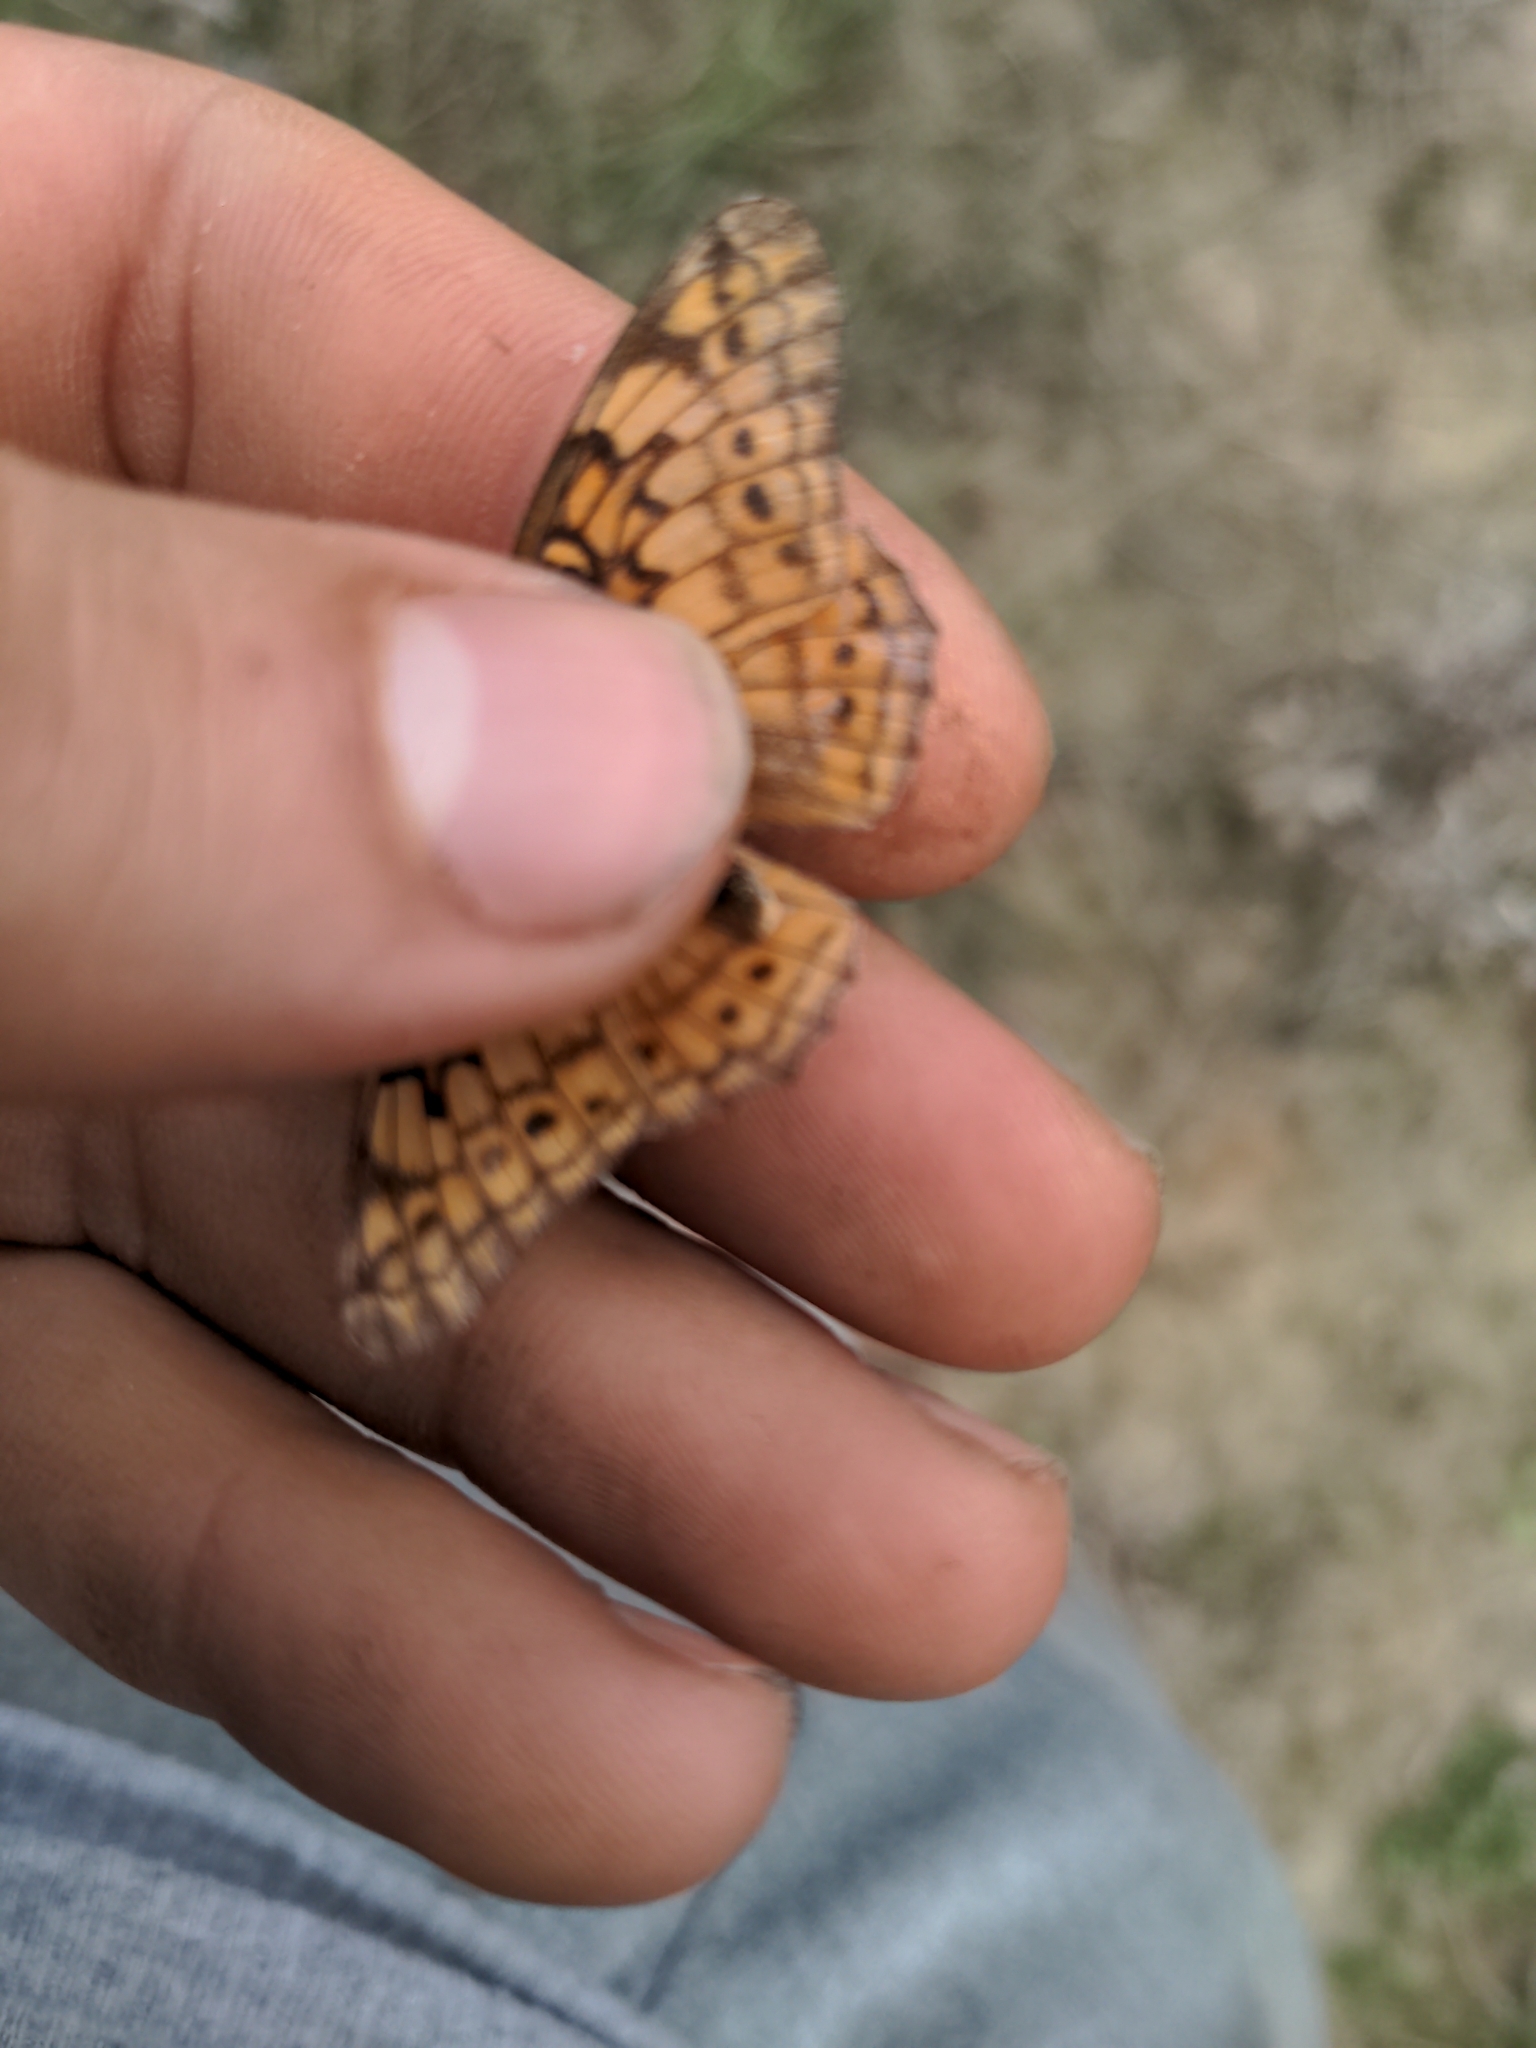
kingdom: Animalia
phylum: Arthropoda
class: Insecta
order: Lepidoptera
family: Nymphalidae
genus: Euptoieta
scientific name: Euptoieta claudia
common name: Variegated fritillary
